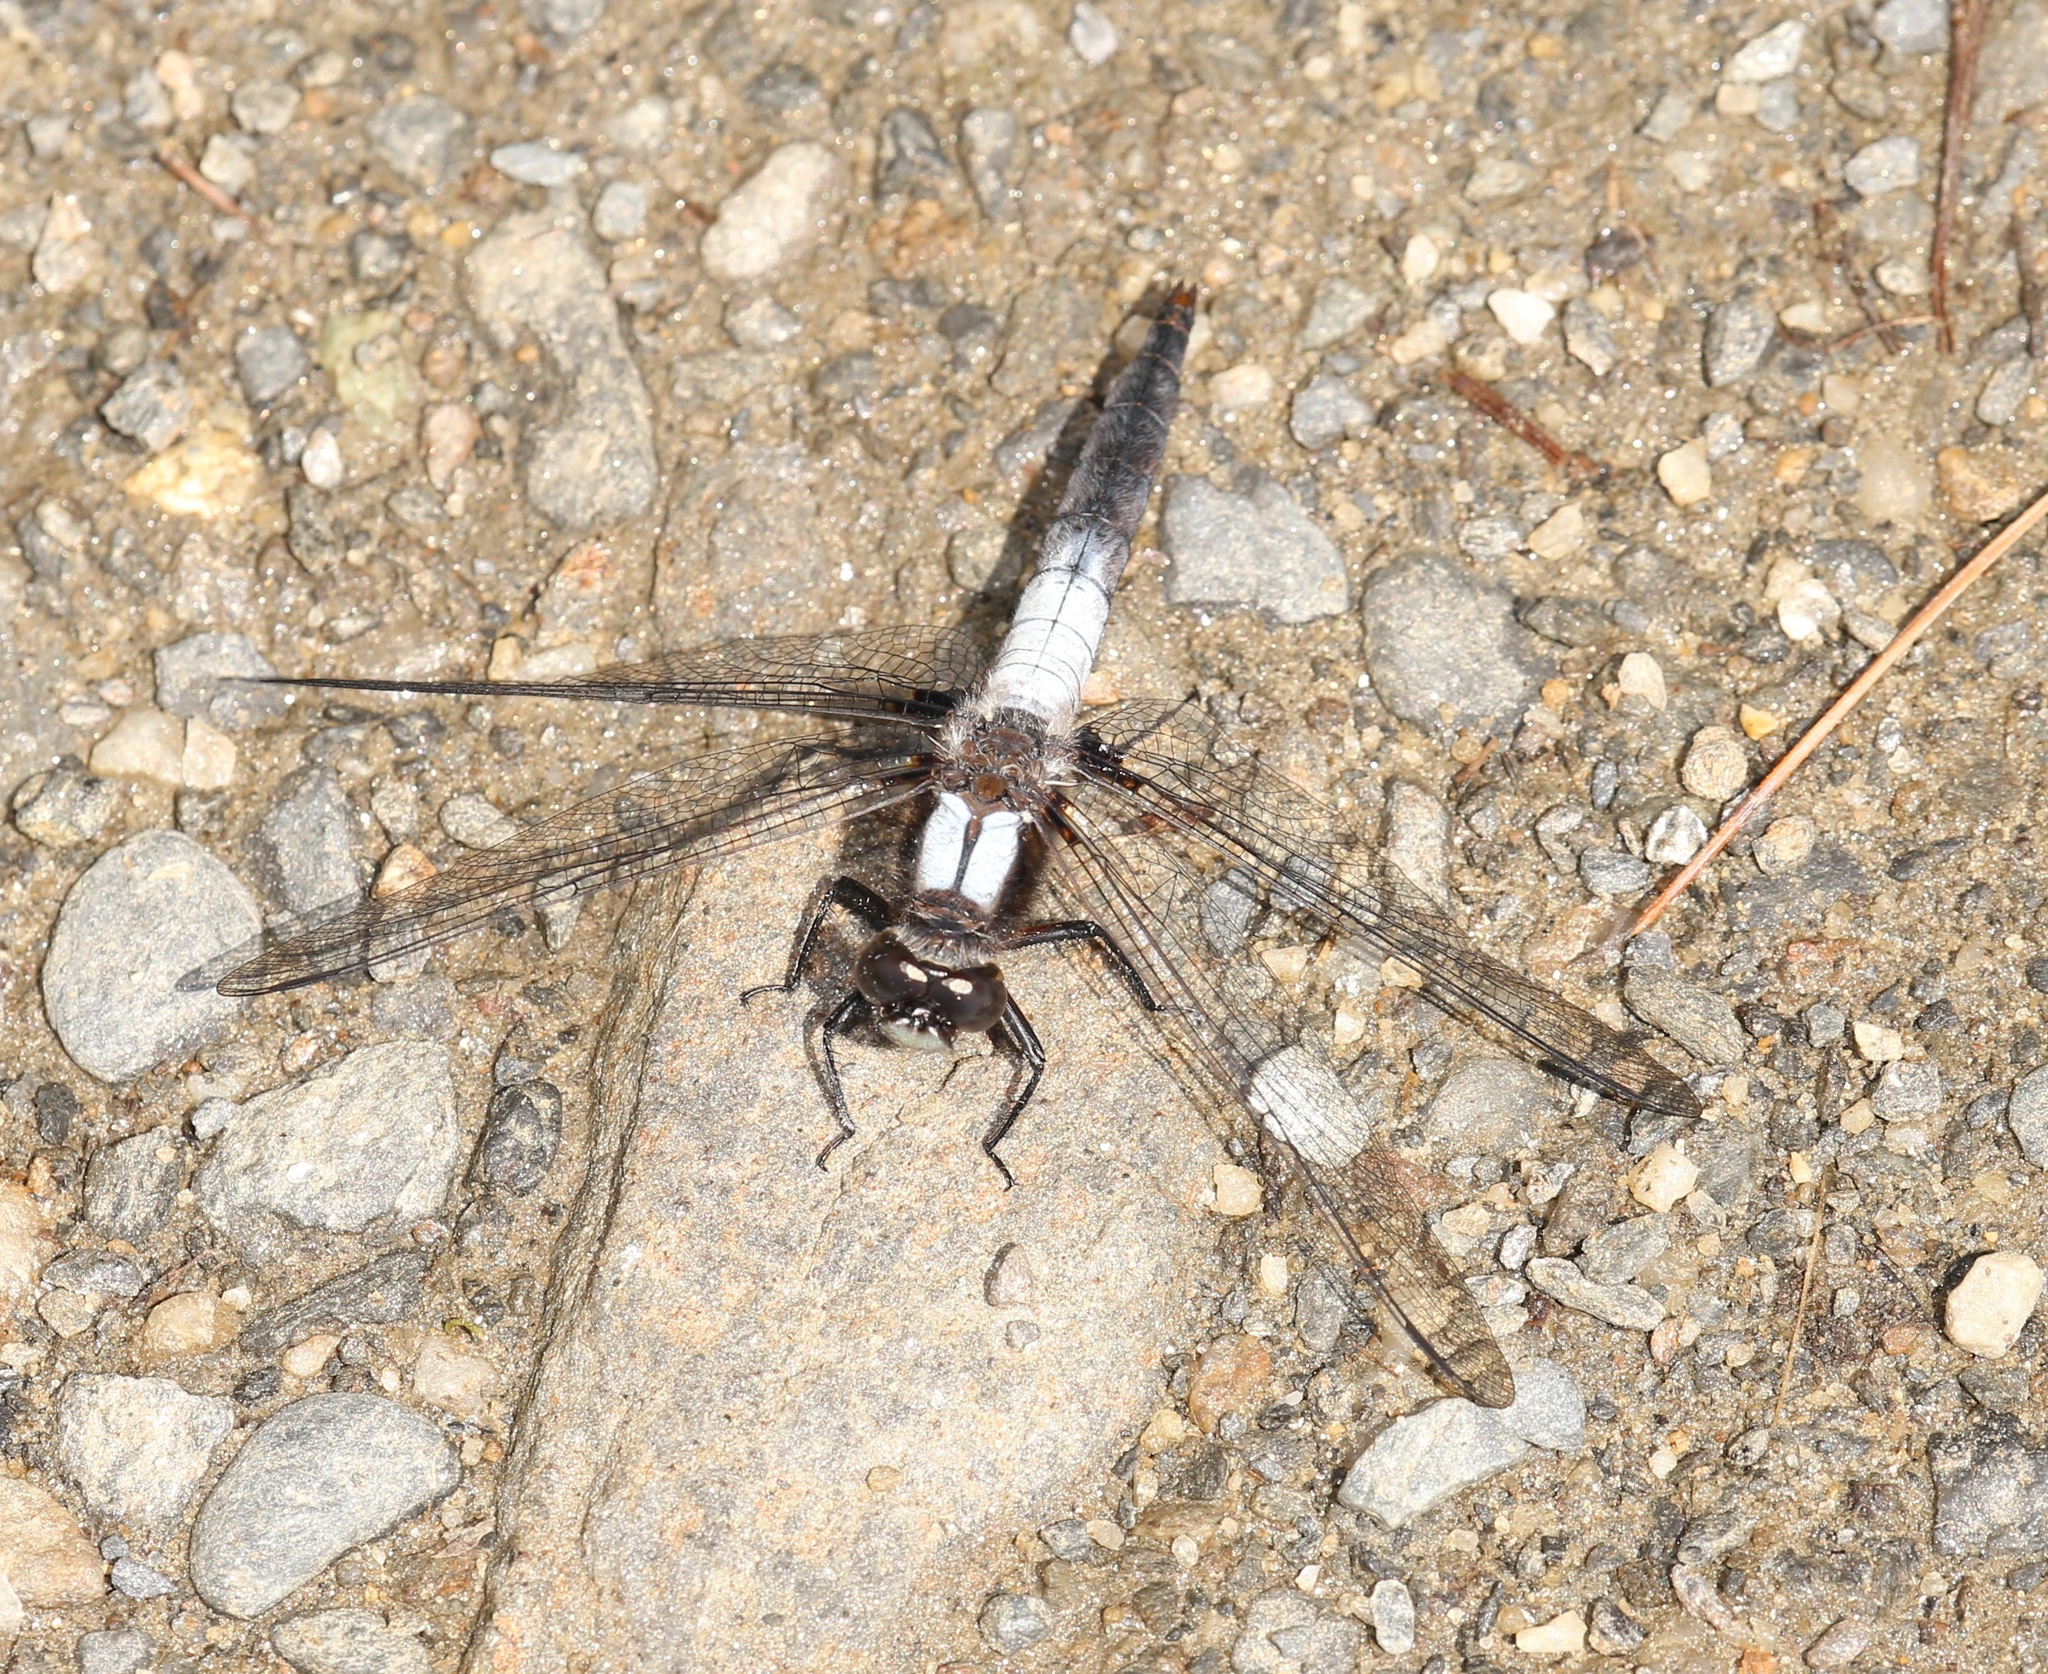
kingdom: Animalia
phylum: Arthropoda
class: Insecta
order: Odonata
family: Libellulidae
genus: Ladona
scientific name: Ladona julia
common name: Chalk-fronted corporal
